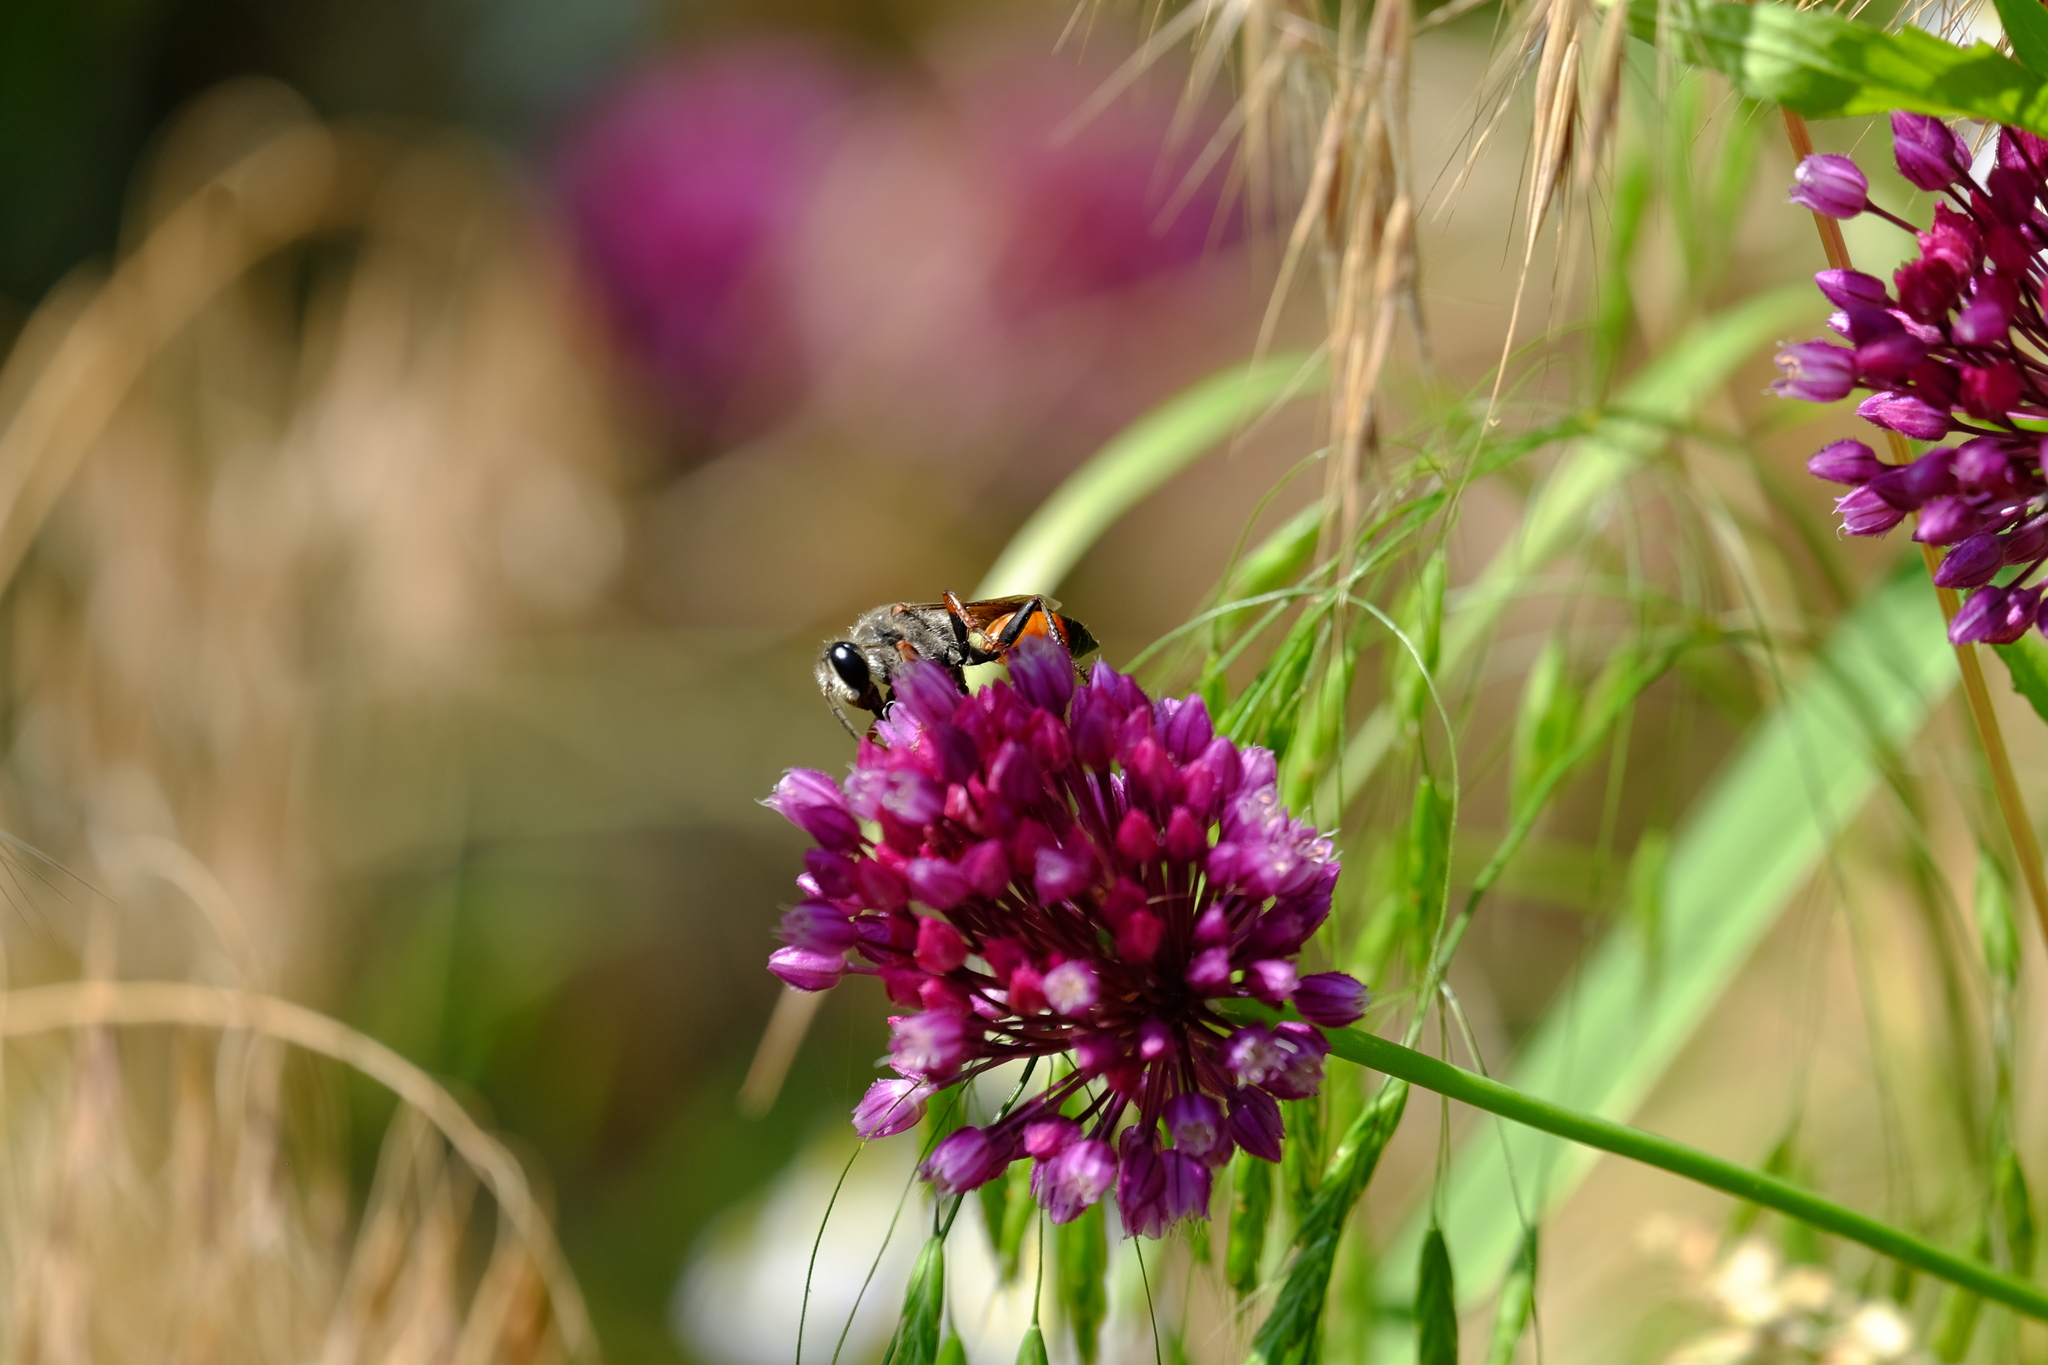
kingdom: Animalia
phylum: Arthropoda
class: Insecta
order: Hymenoptera
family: Sphecidae
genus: Sphex
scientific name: Sphex funerarius
